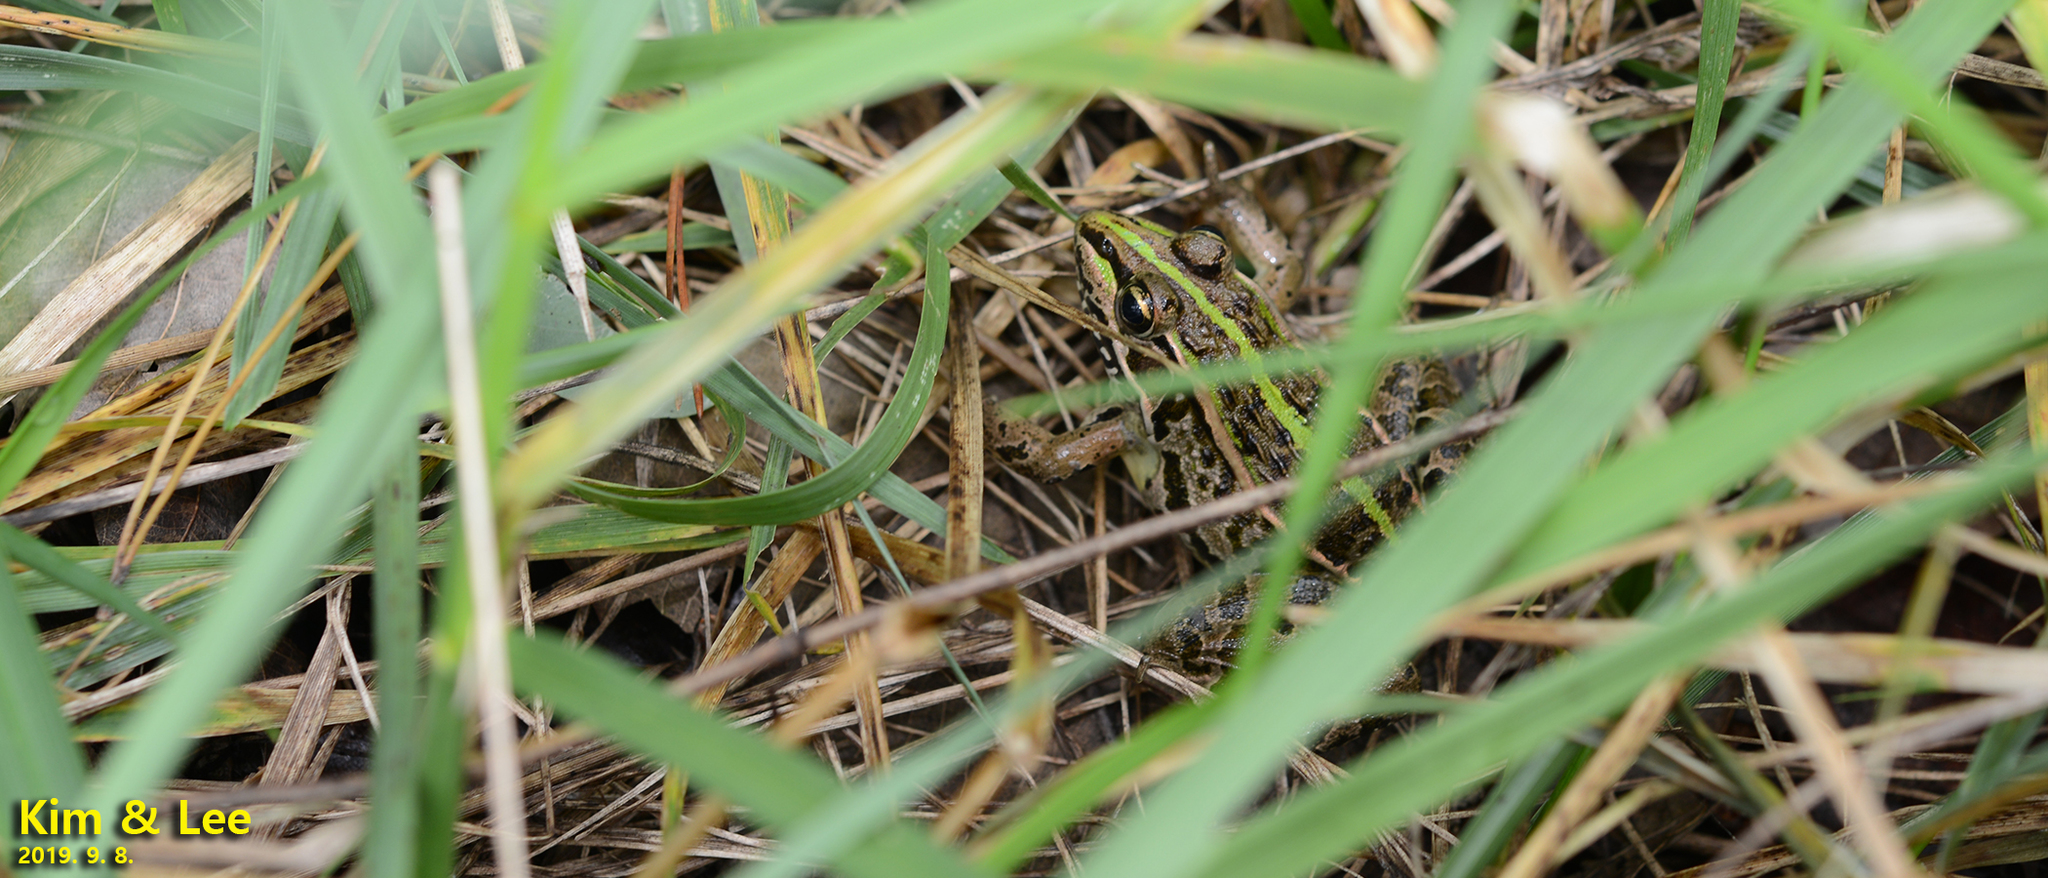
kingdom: Animalia
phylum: Chordata
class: Amphibia
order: Anura
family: Ranidae
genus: Pelophylax
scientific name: Pelophylax nigromaculatus
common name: Black-spotted pond frog
